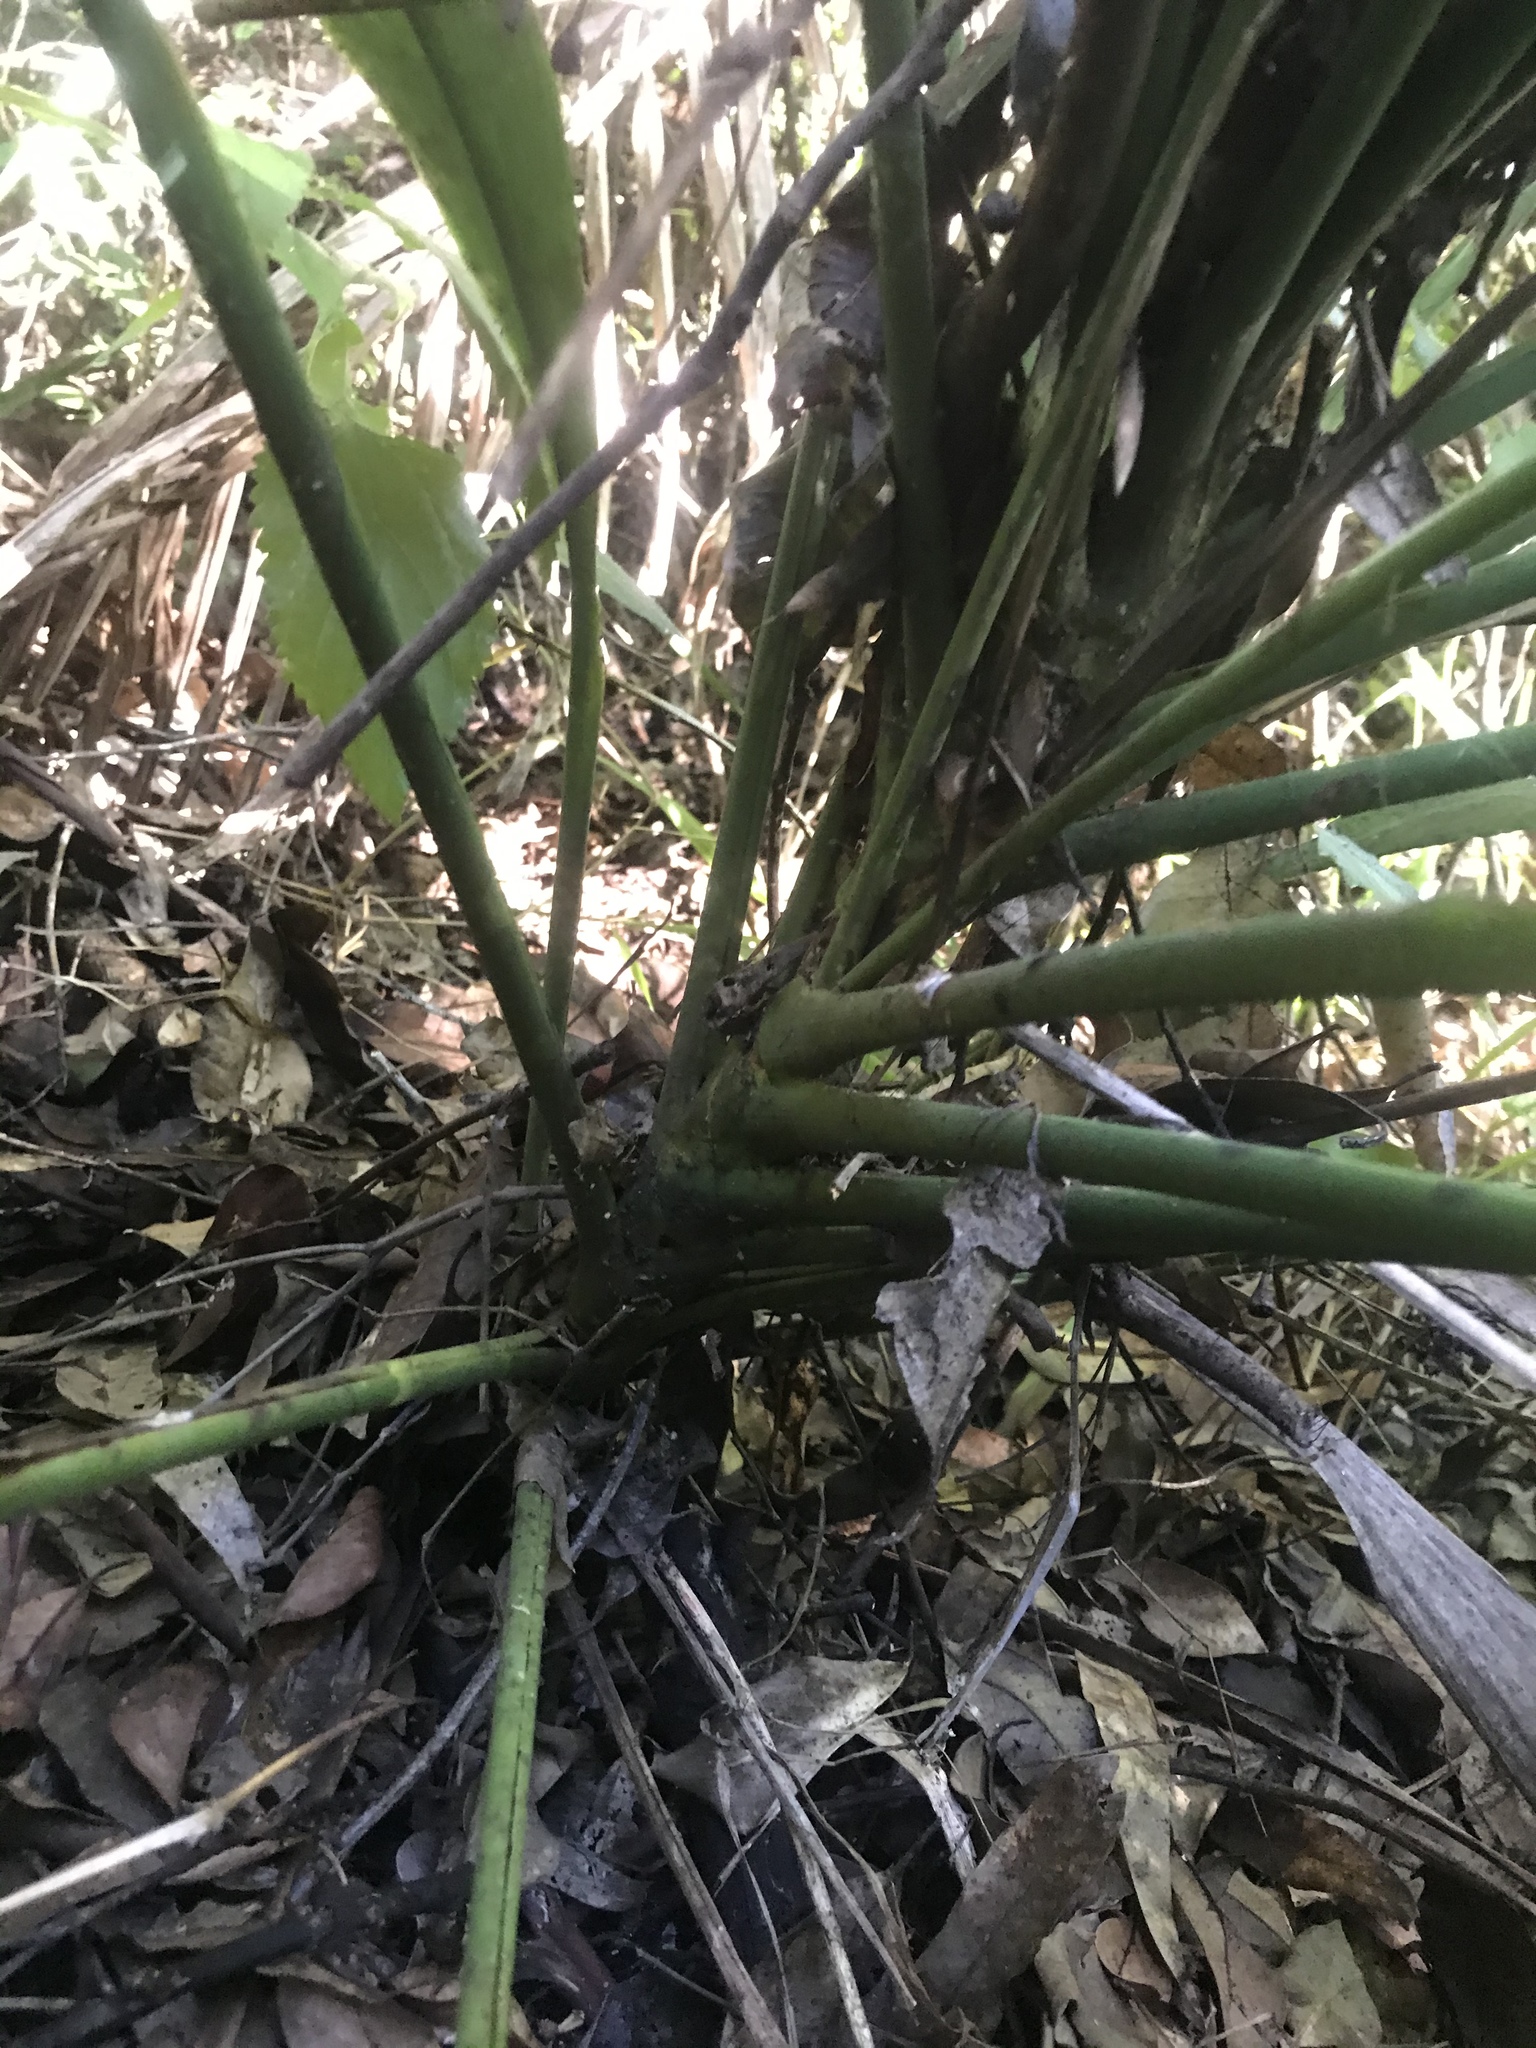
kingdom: Plantae
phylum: Tracheophyta
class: Liliopsida
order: Asparagales
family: Asparagaceae
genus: Cordyline
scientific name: Cordyline petiolaris
